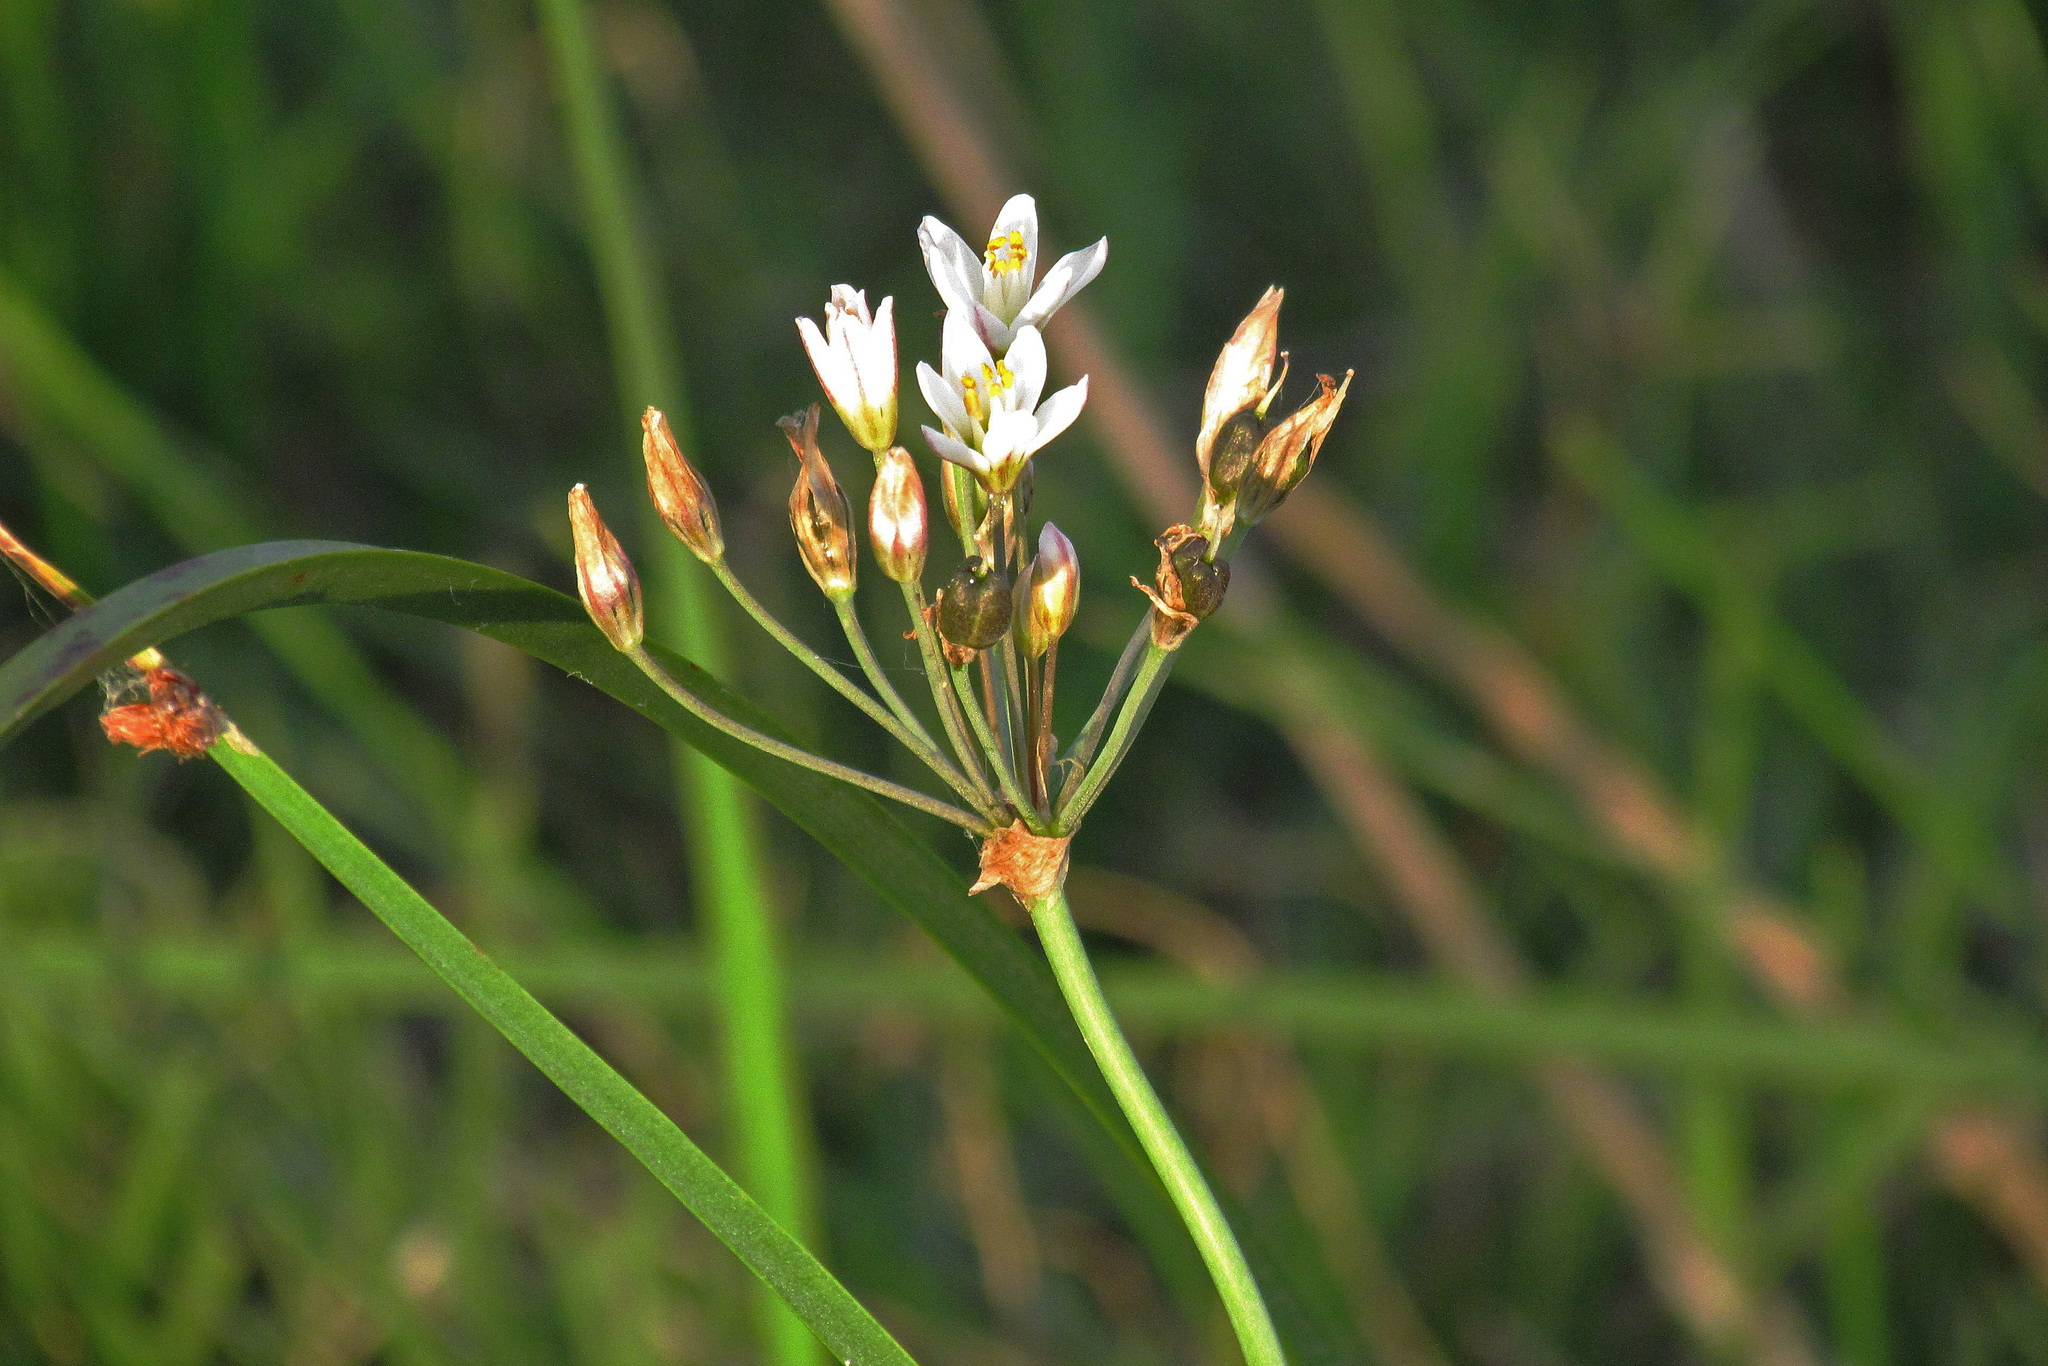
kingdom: Plantae
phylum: Tracheophyta
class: Liliopsida
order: Asparagales
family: Amaryllidaceae
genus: Nothoscordum
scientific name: Nothoscordum gracile
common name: Slender false garlic
